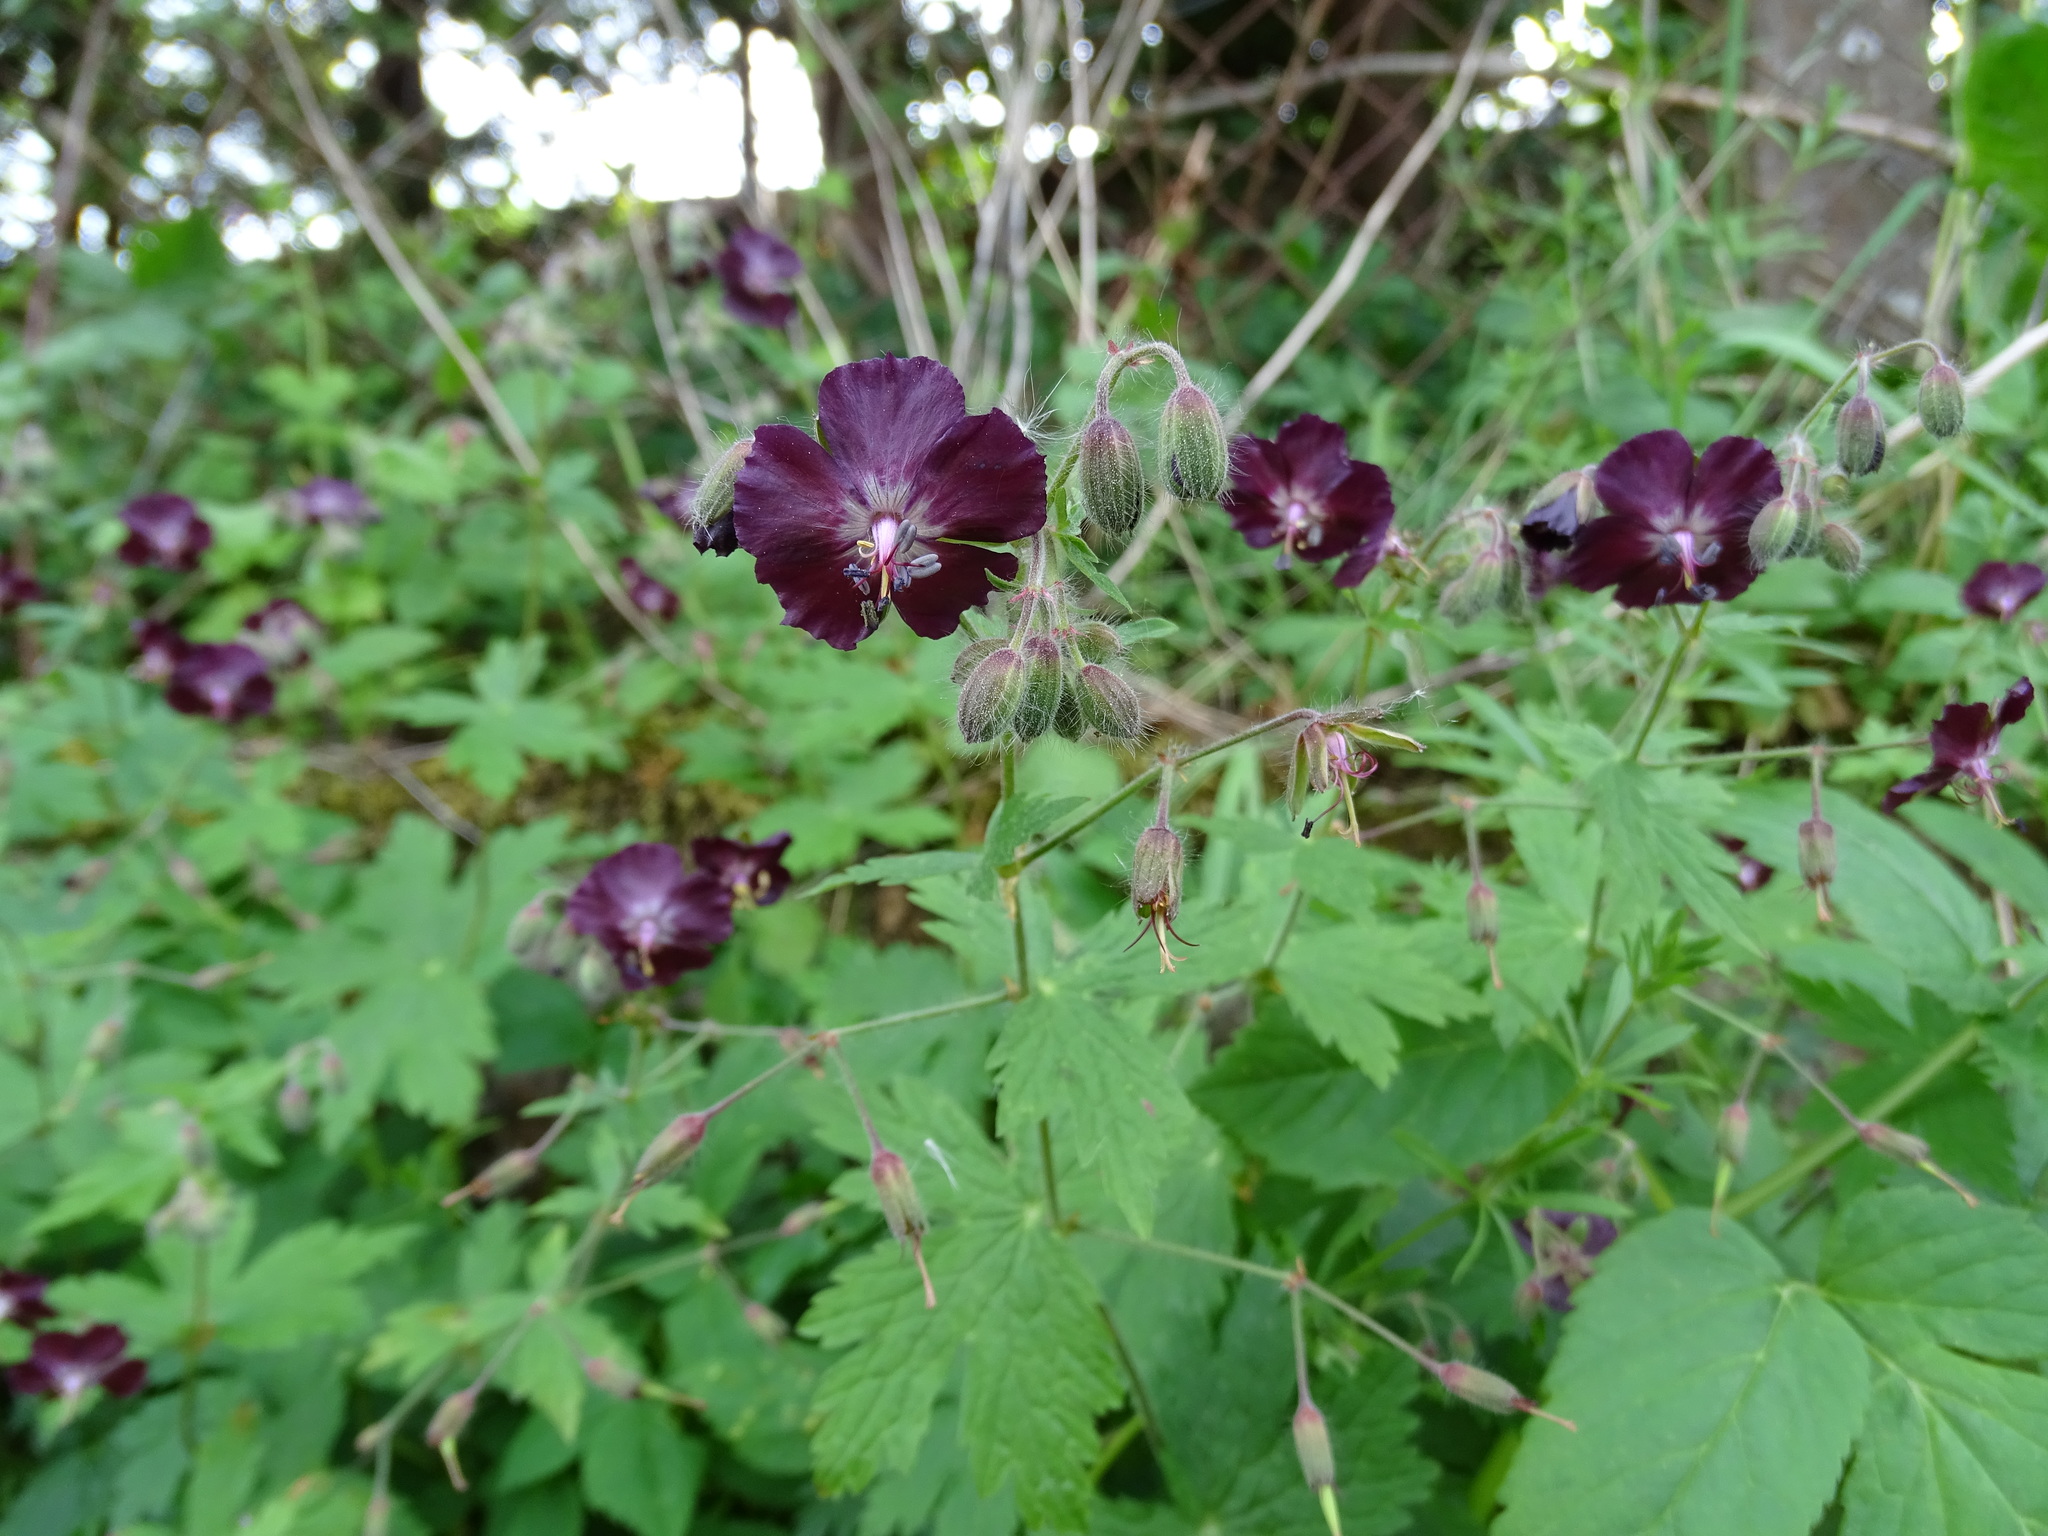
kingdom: Plantae
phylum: Tracheophyta
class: Magnoliopsida
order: Geraniales
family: Geraniaceae
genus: Geranium
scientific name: Geranium phaeum
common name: Dusky crane's-bill
